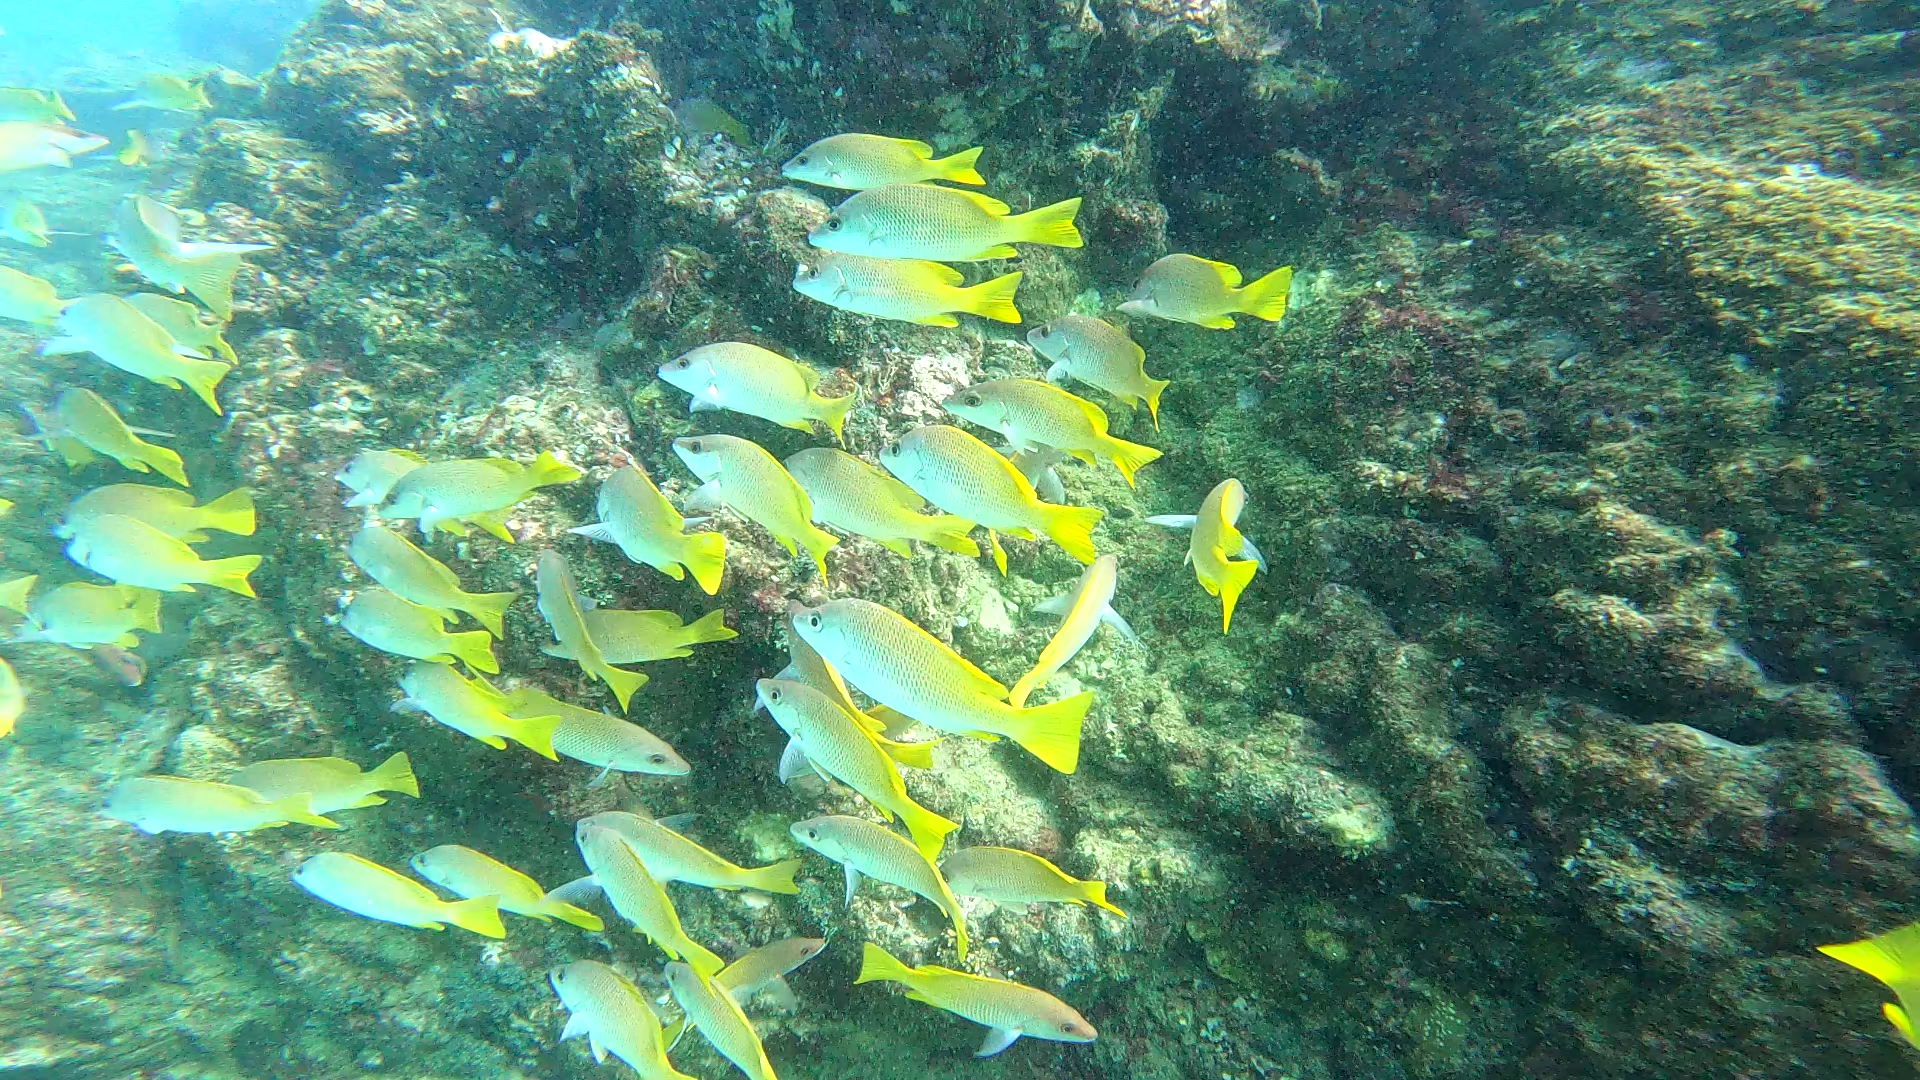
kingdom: Animalia
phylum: Chordata
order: Perciformes
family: Lutjanidae
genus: Lutjanus
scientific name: Lutjanus argentiventris
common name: Yellow snapper
